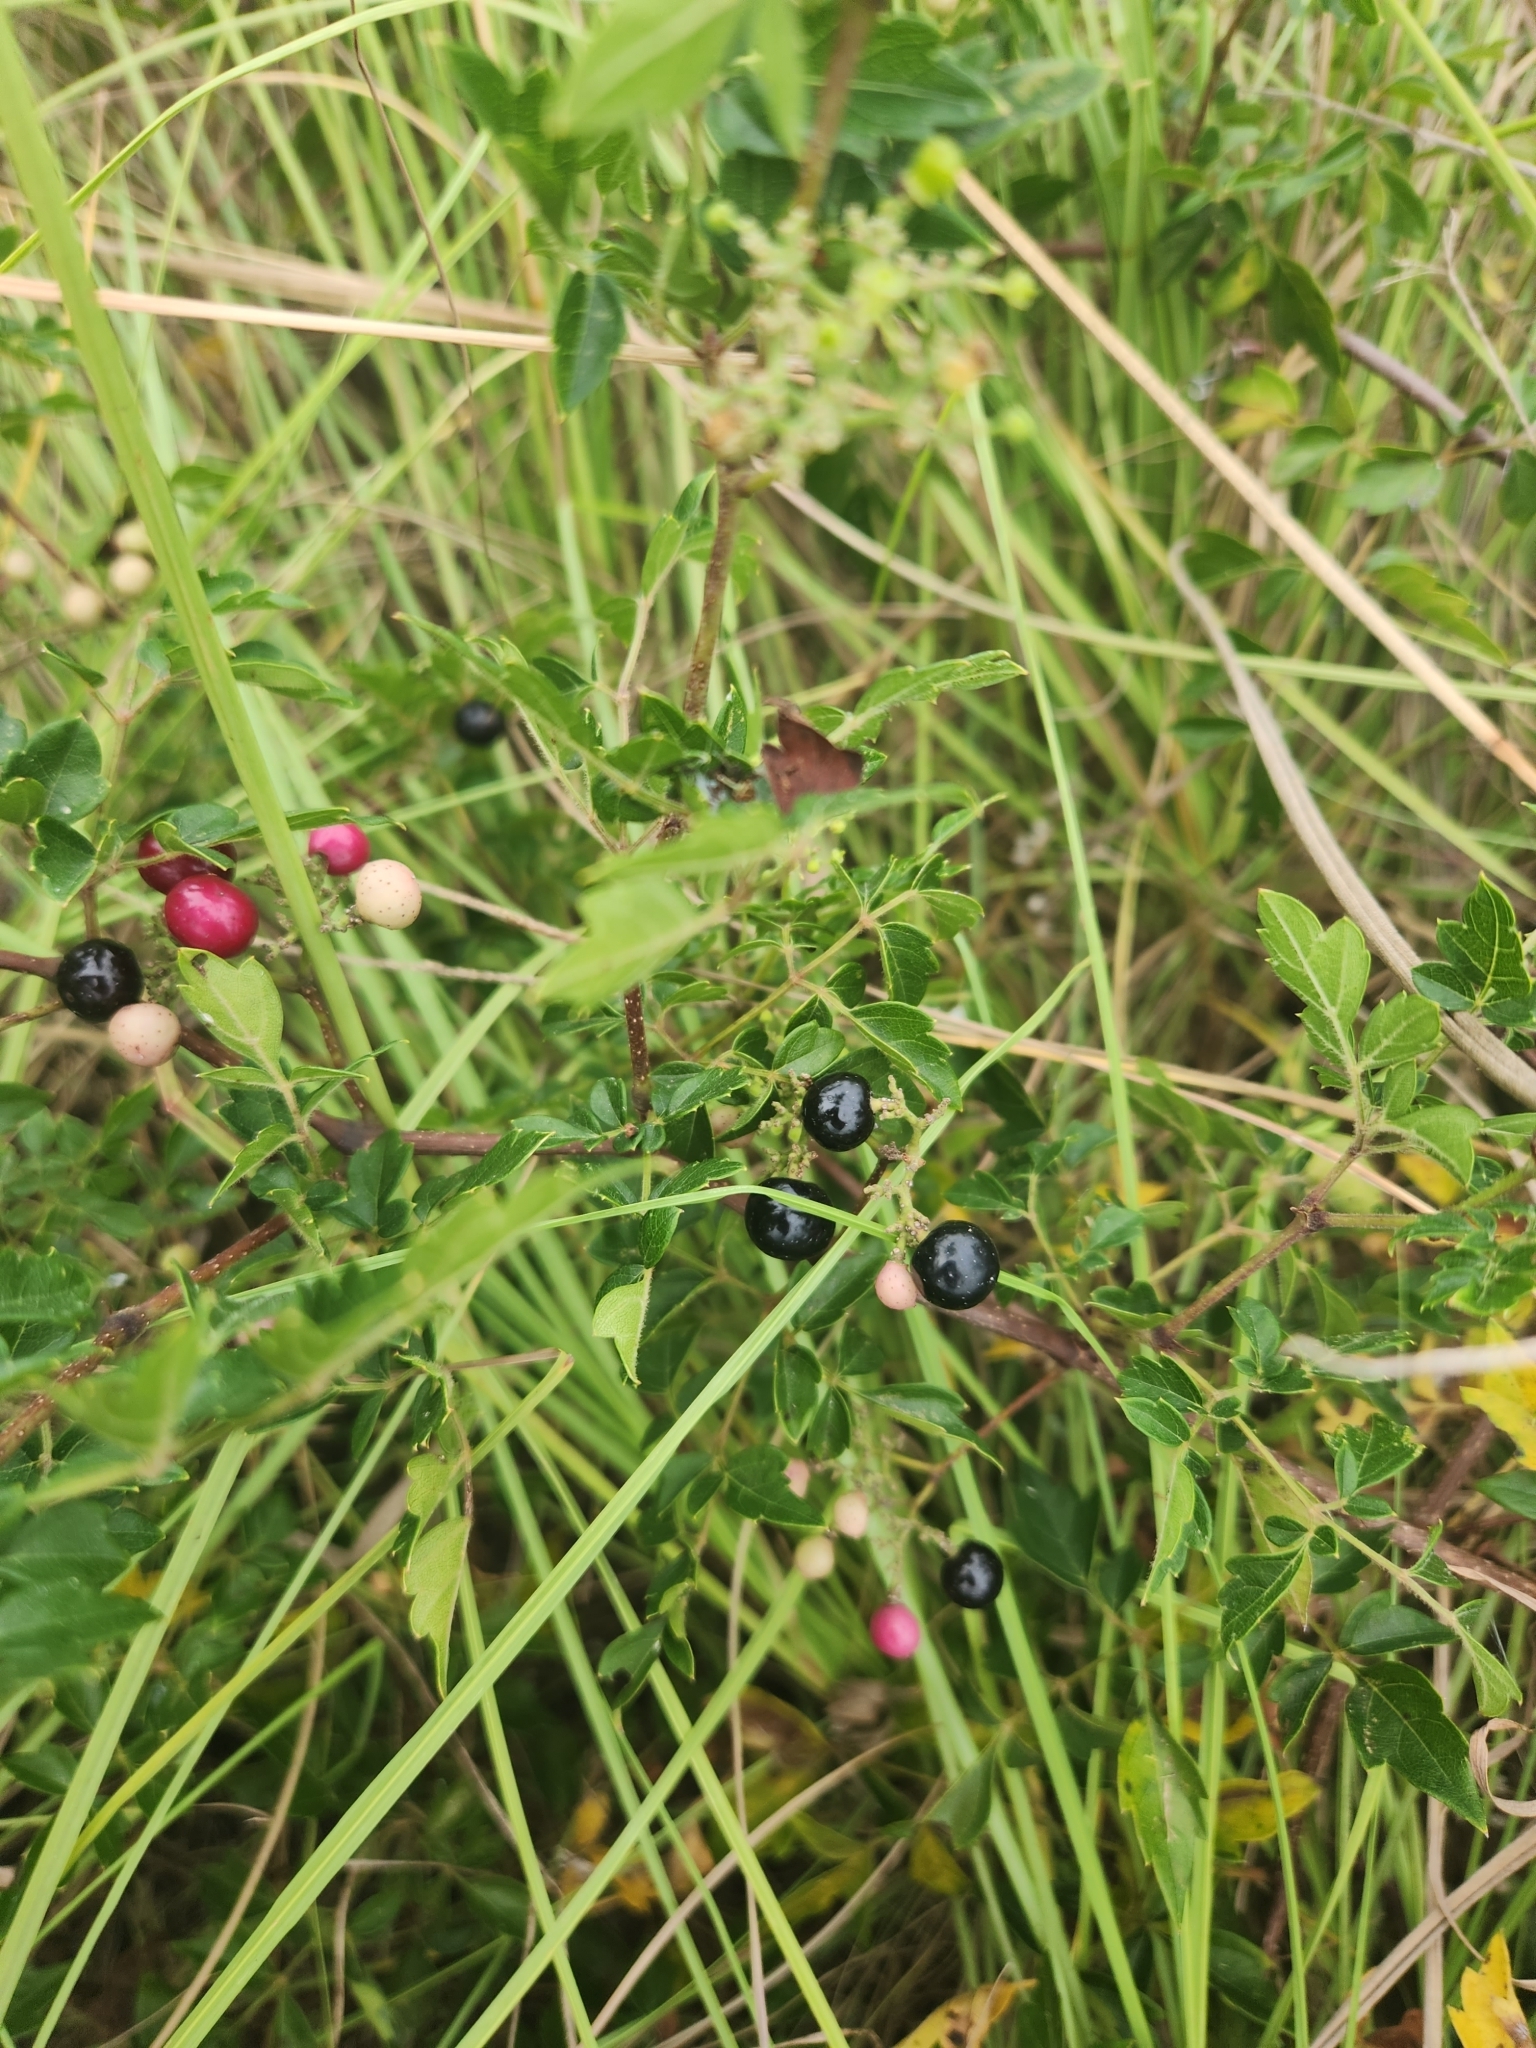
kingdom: Plantae
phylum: Tracheophyta
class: Magnoliopsida
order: Vitales
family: Vitaceae
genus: Nekemias
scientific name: Nekemias arborea
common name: Peppervine
